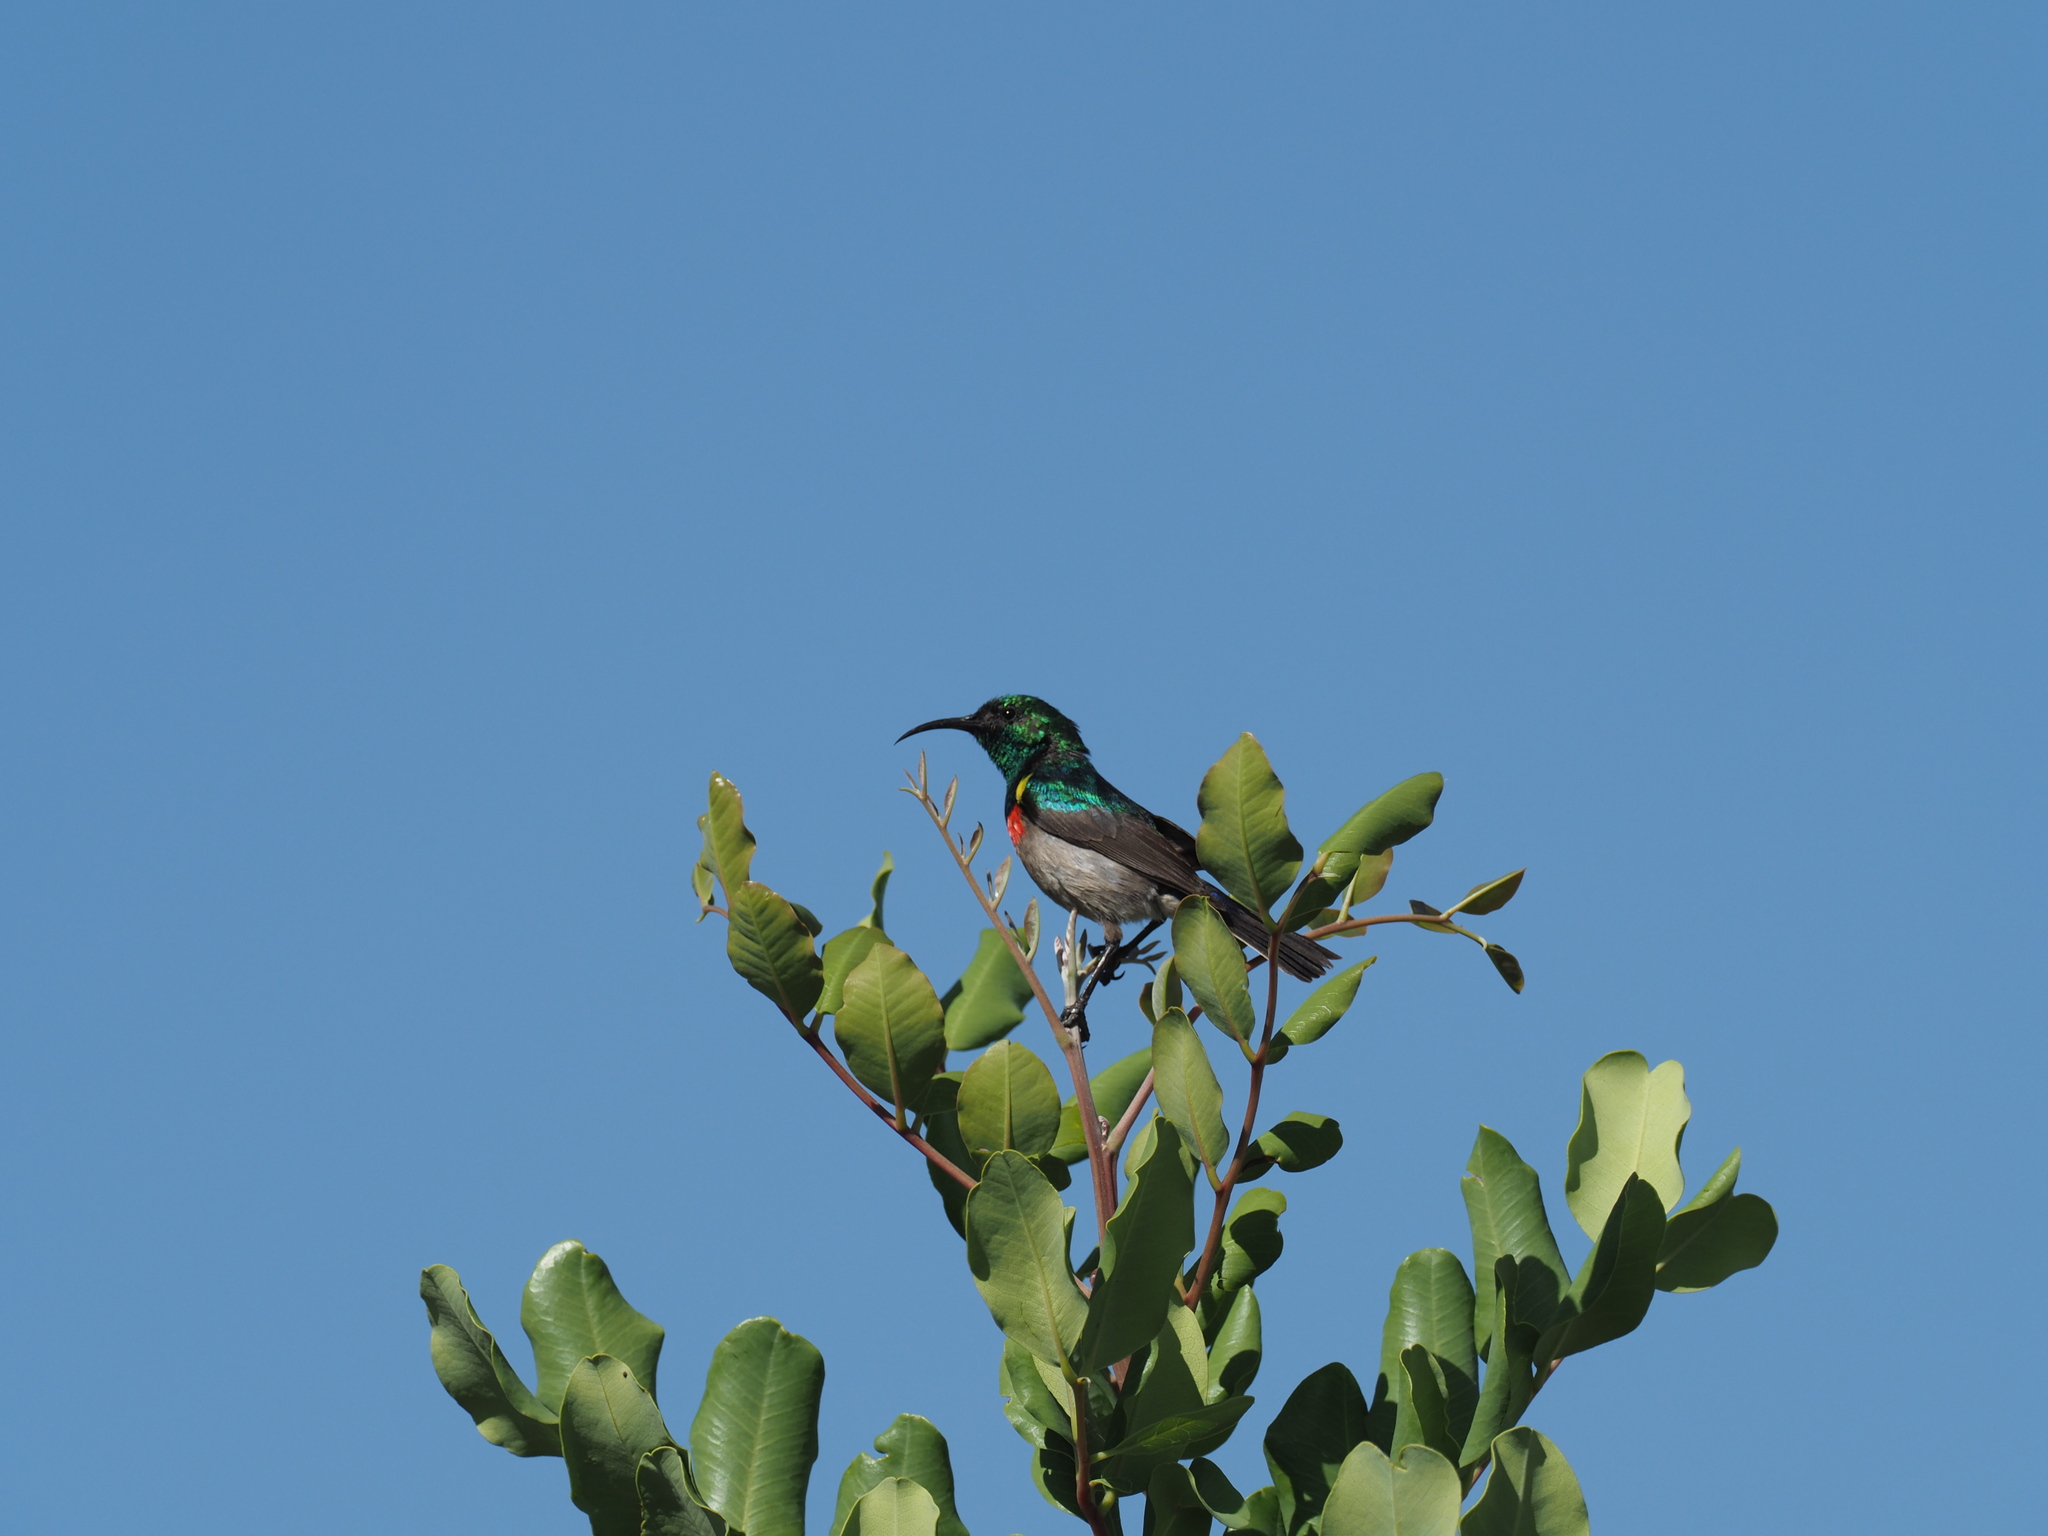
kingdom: Animalia
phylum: Chordata
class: Aves
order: Passeriformes
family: Nectariniidae
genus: Cinnyris
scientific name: Cinnyris chalybeus
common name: Southern double-collared sunbird
